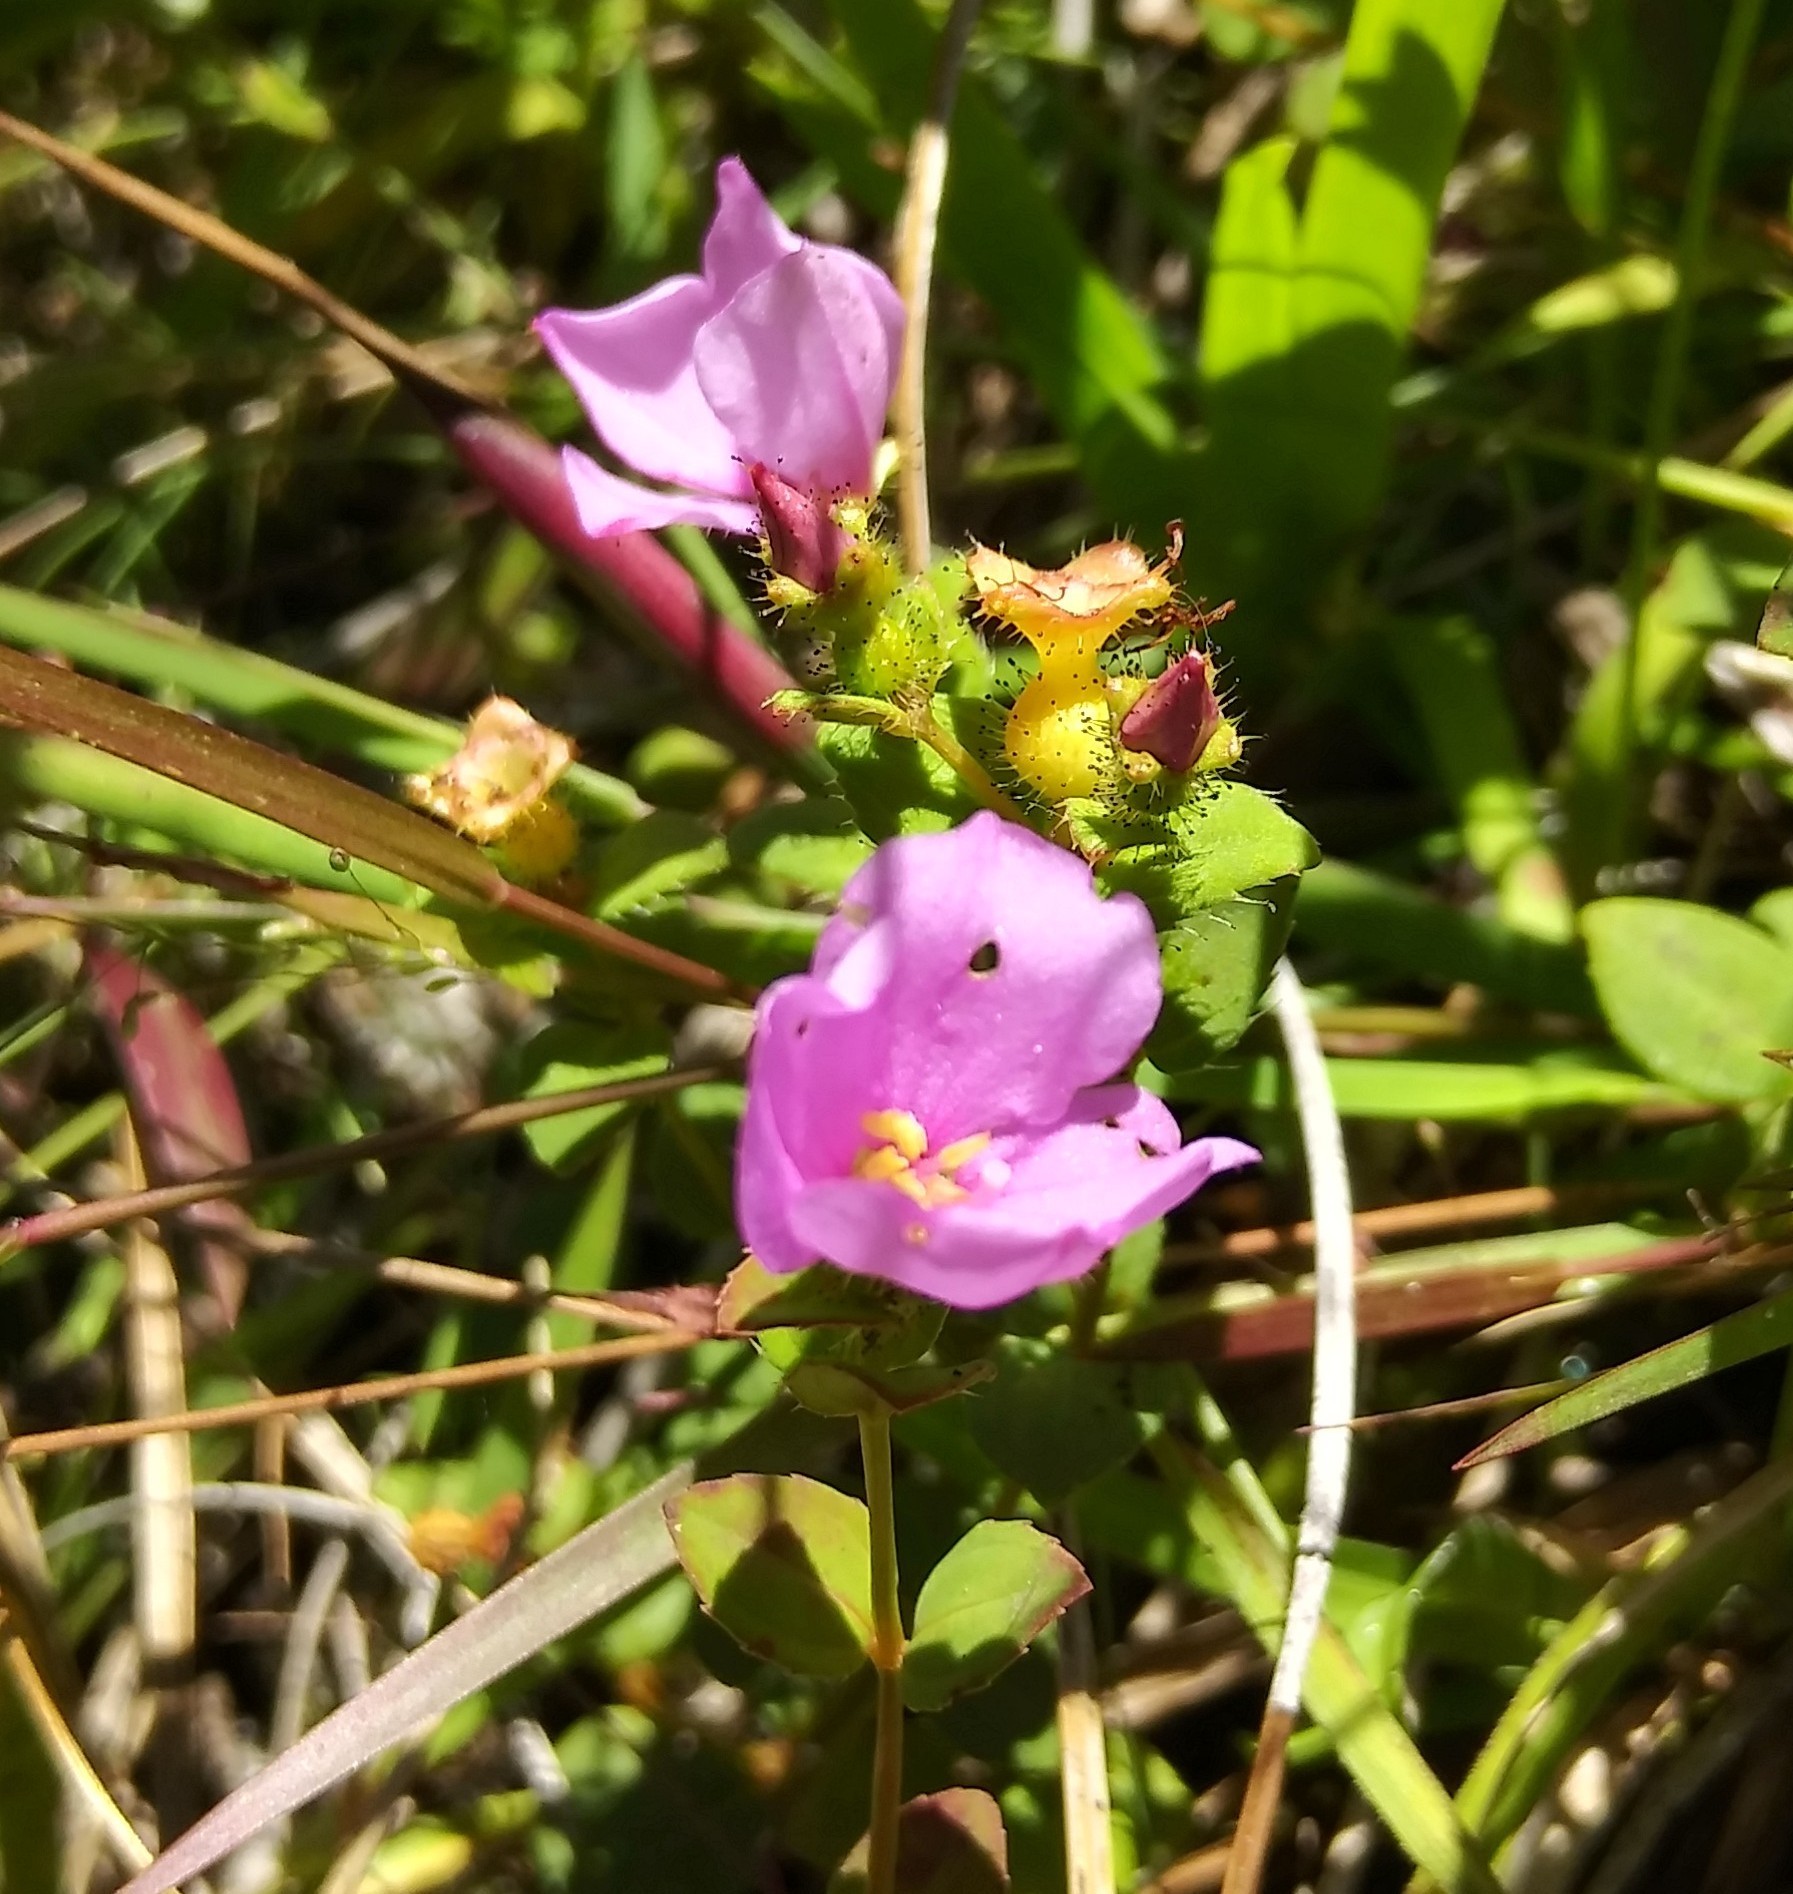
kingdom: Plantae
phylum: Tracheophyta
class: Magnoliopsida
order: Myrtales
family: Melastomataceae
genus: Rhexia
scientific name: Rhexia nuttallii
